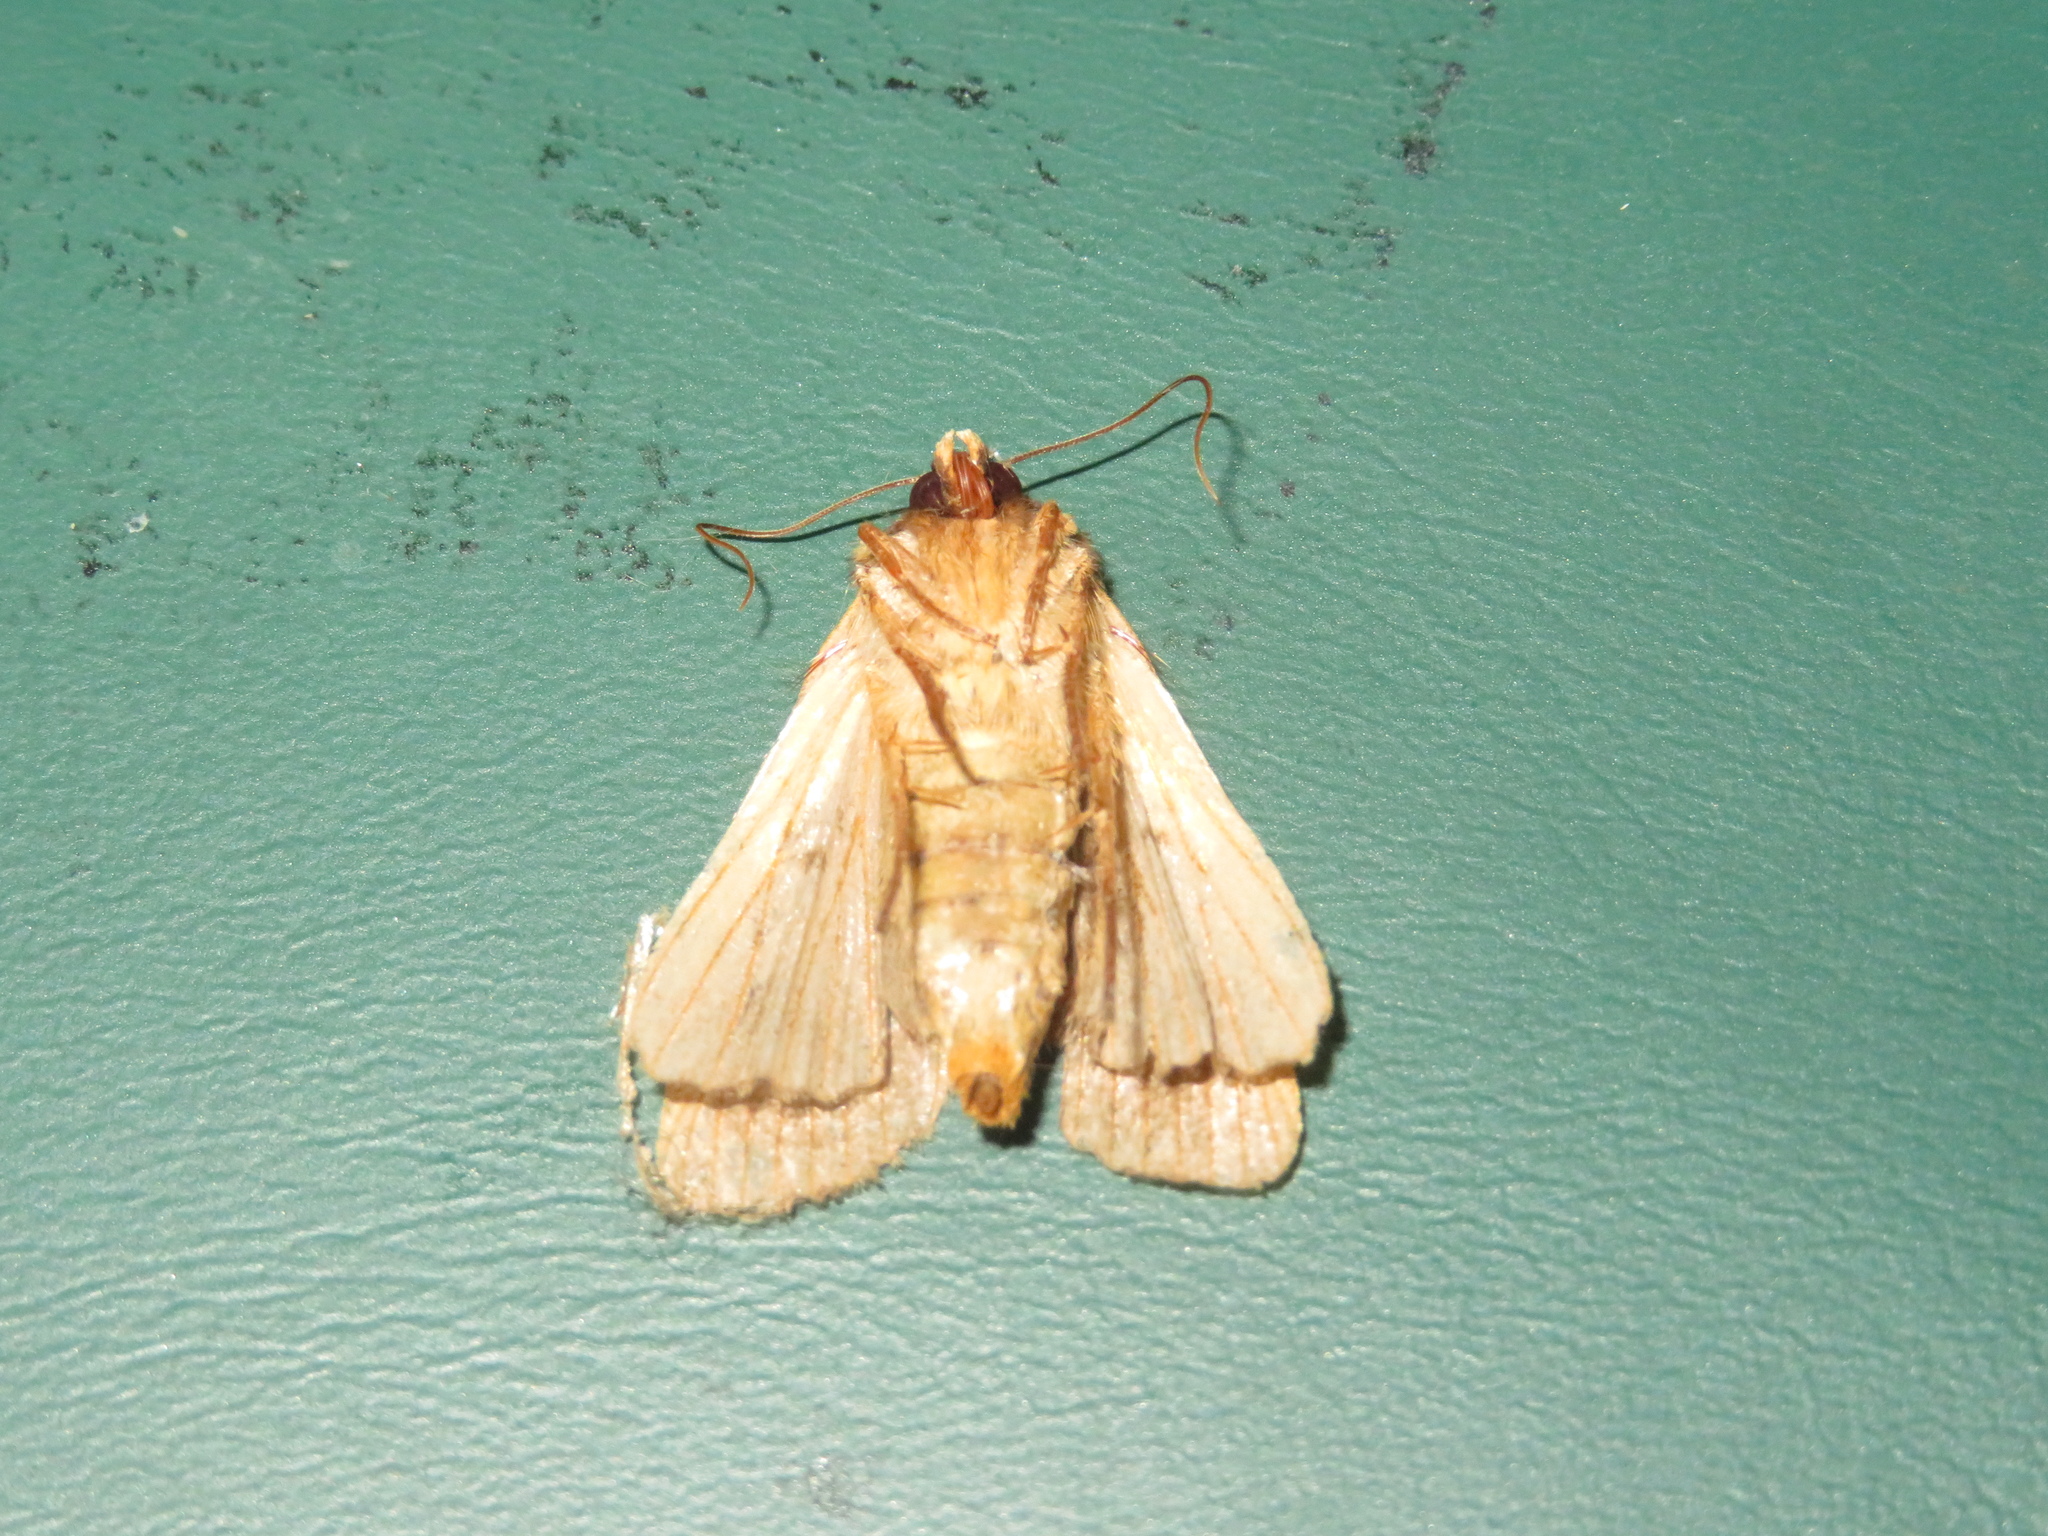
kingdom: Animalia
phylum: Arthropoda
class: Insecta
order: Lepidoptera
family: Noctuidae
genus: Bityla
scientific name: Bityla defigurata
